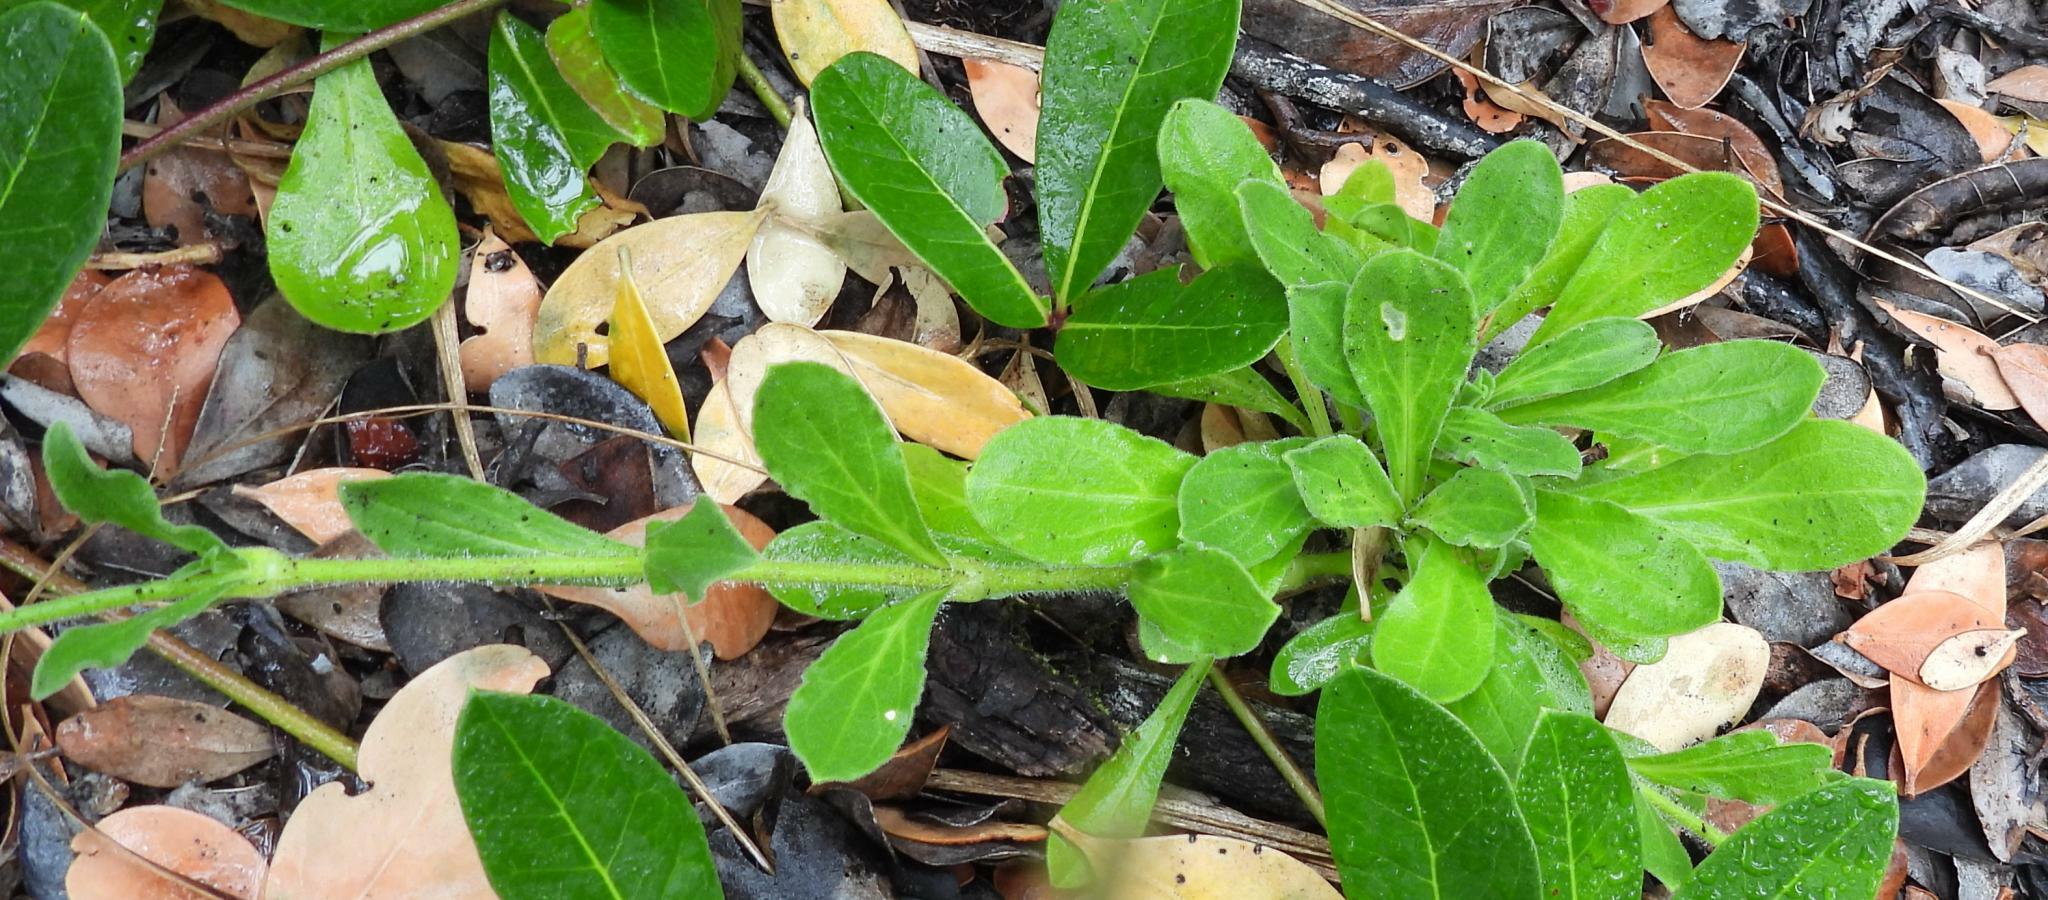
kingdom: Plantae
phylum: Tracheophyta
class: Magnoliopsida
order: Caryophyllales
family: Caryophyllaceae
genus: Silene
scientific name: Silene undulata
